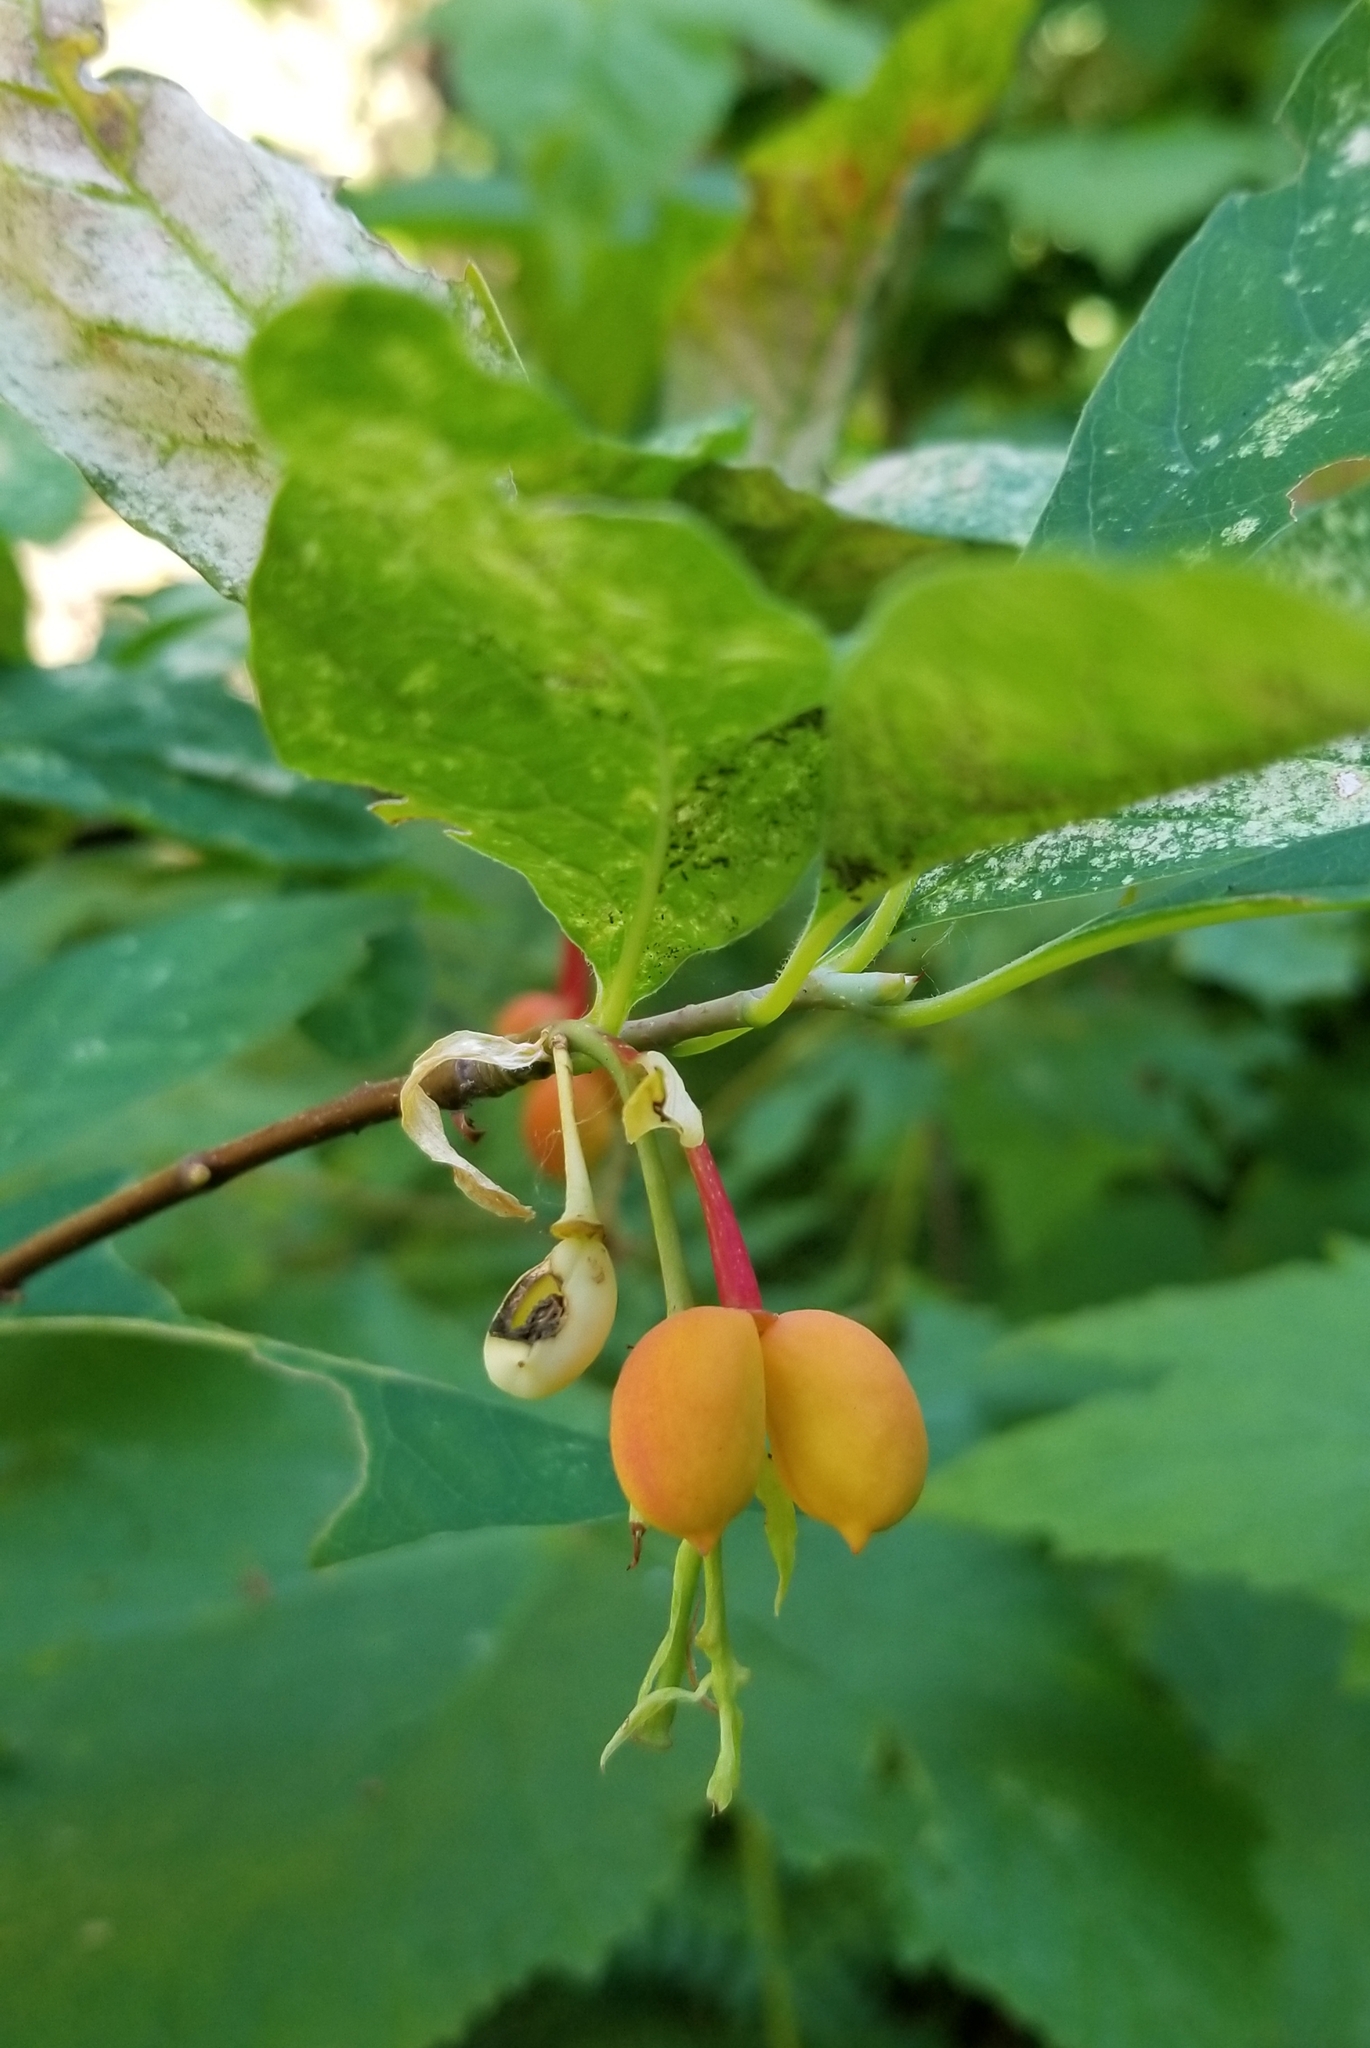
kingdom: Plantae
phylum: Tracheophyta
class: Magnoliopsida
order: Rosales
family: Rosaceae
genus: Oemleria
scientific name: Oemleria cerasiformis
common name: Osoberry
